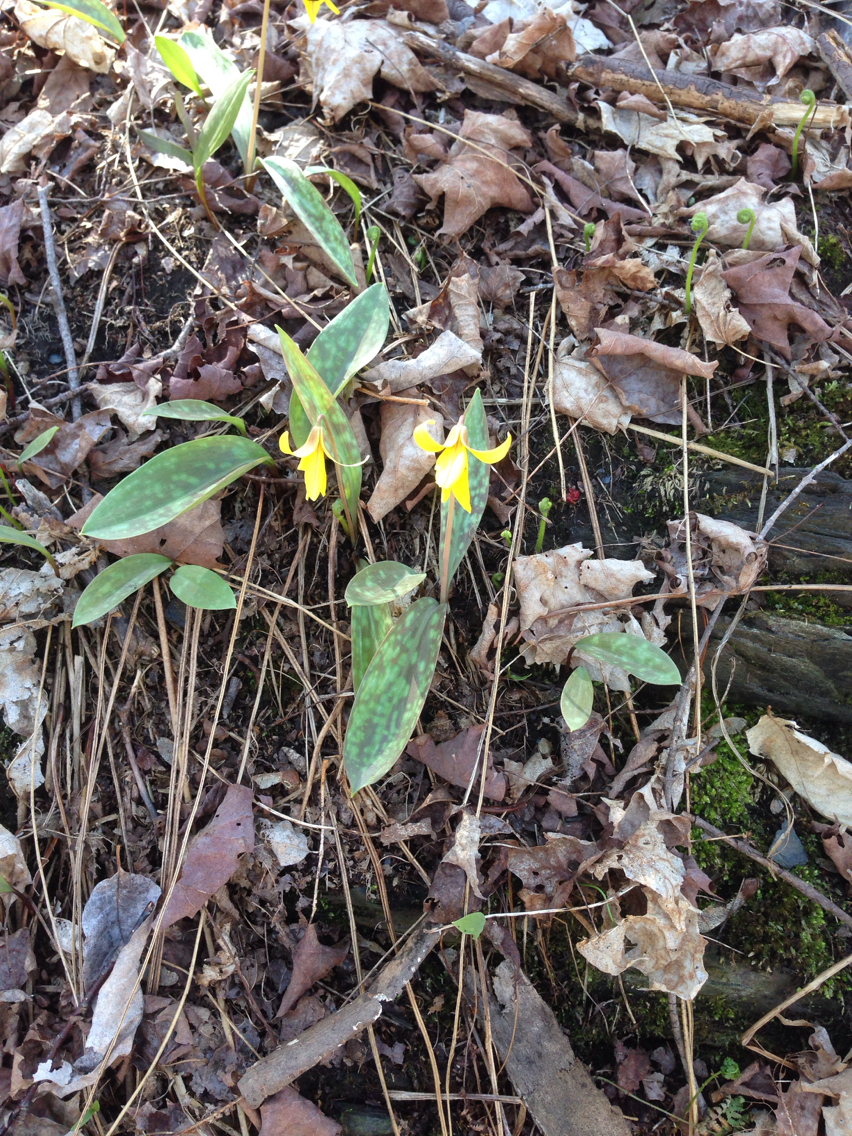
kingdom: Plantae
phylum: Tracheophyta
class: Liliopsida
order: Liliales
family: Liliaceae
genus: Erythronium
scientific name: Erythronium americanum
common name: Yellow adder's-tongue
